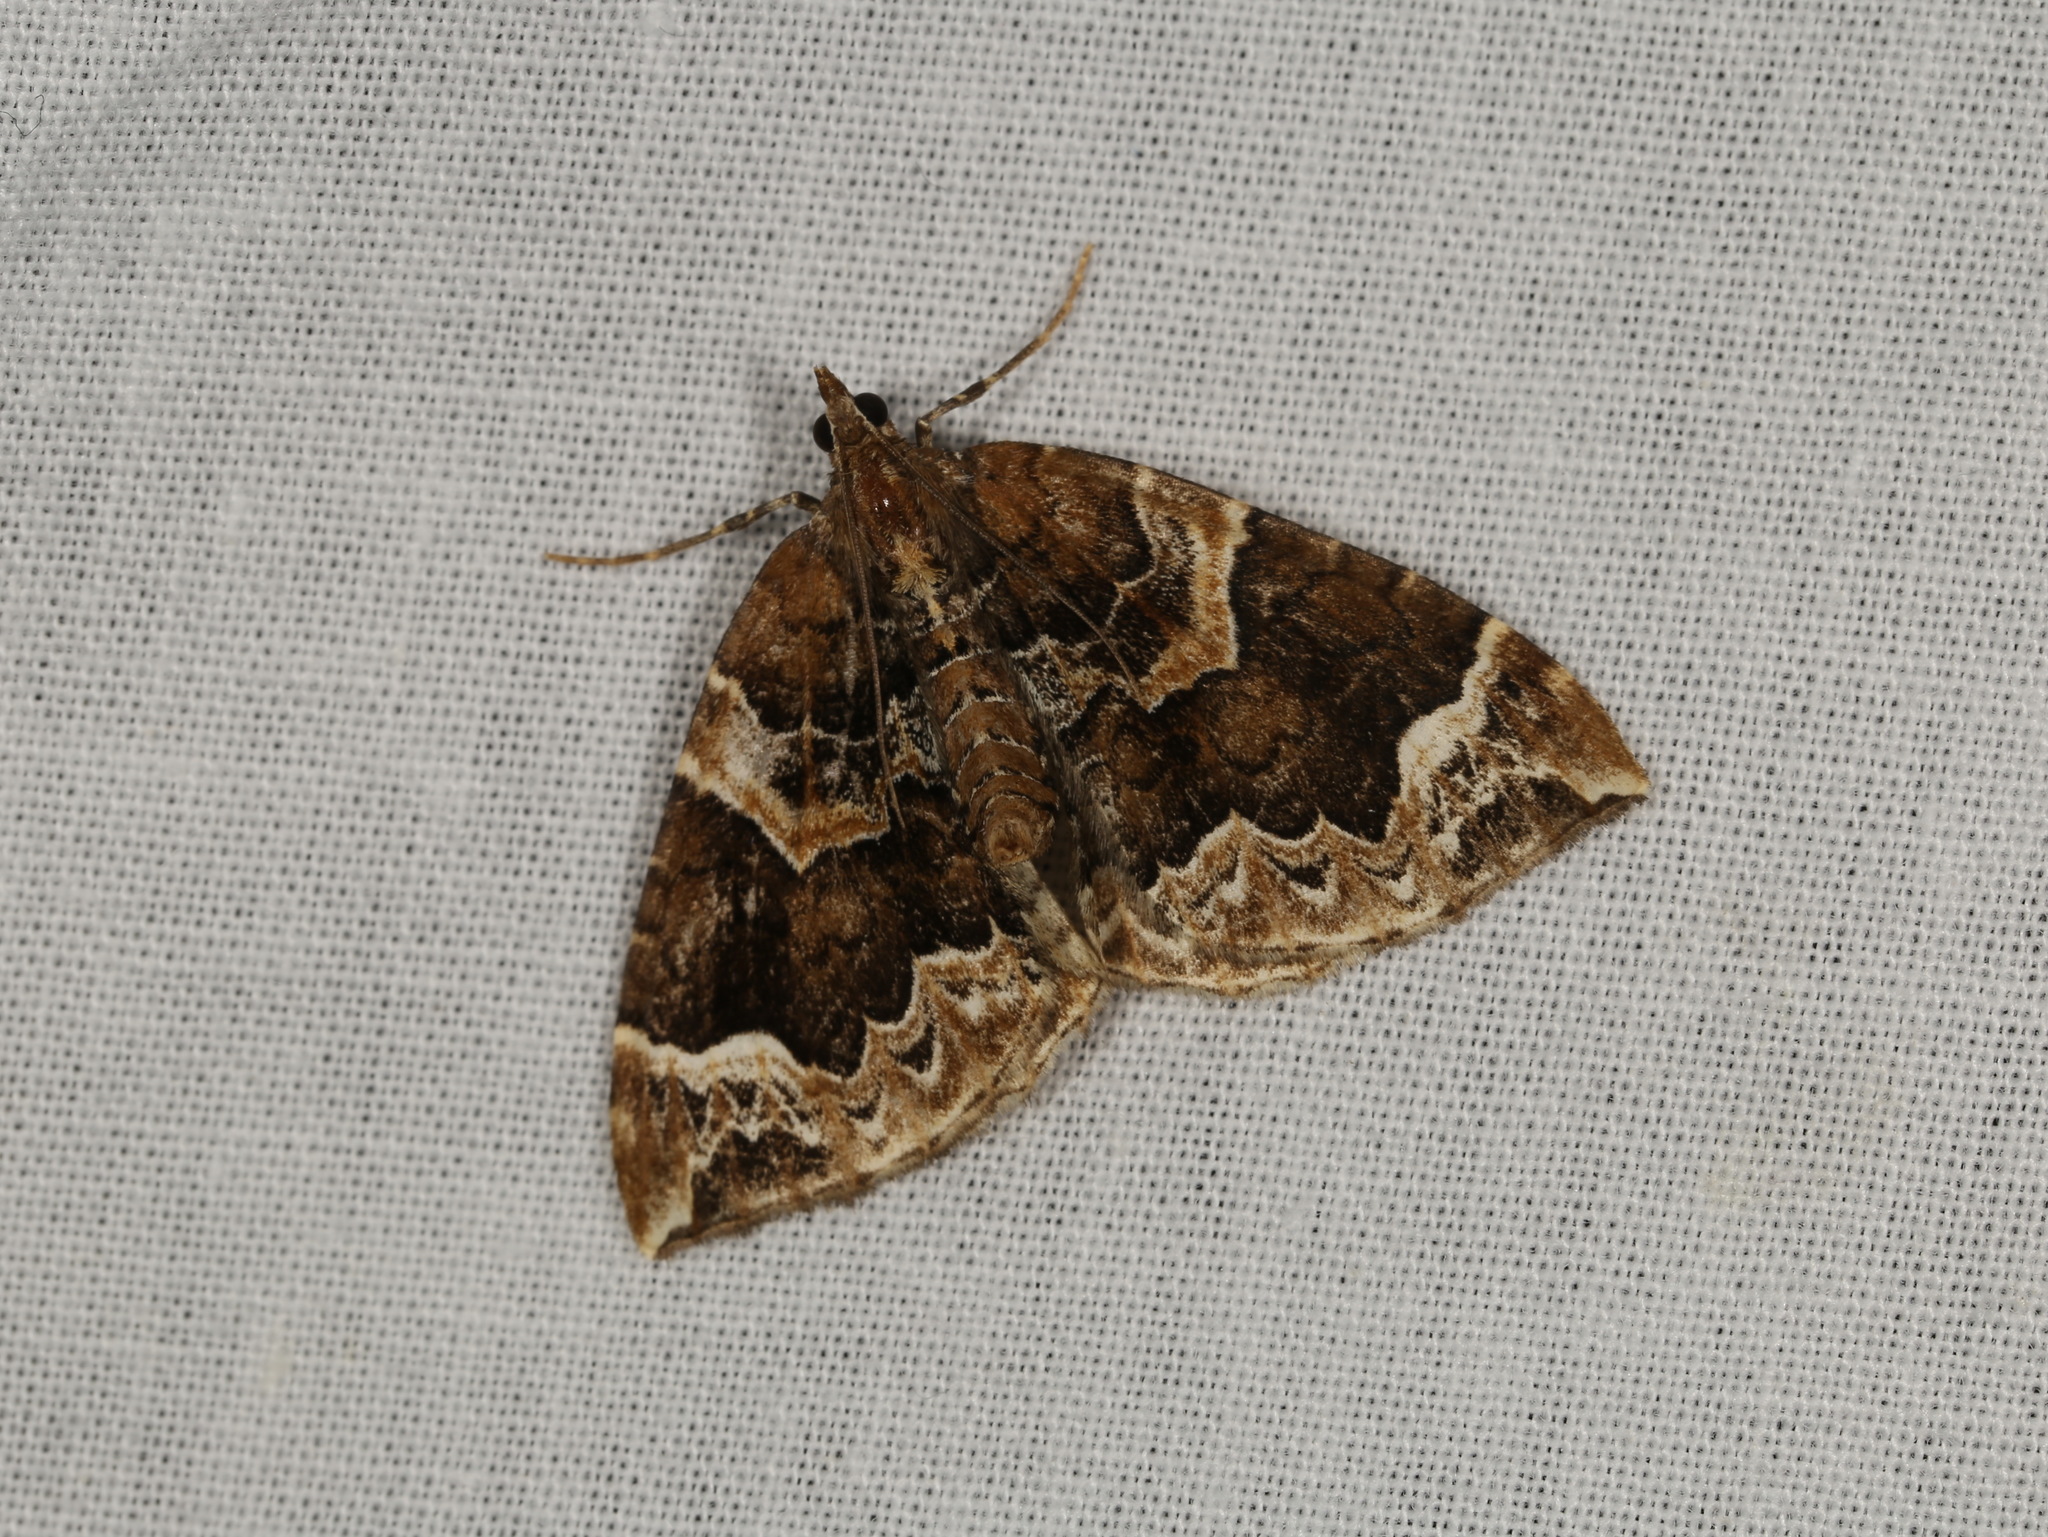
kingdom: Animalia
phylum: Arthropoda
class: Insecta
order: Lepidoptera
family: Geometridae
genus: Eulithis
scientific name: Eulithis prunata
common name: Phoenix
